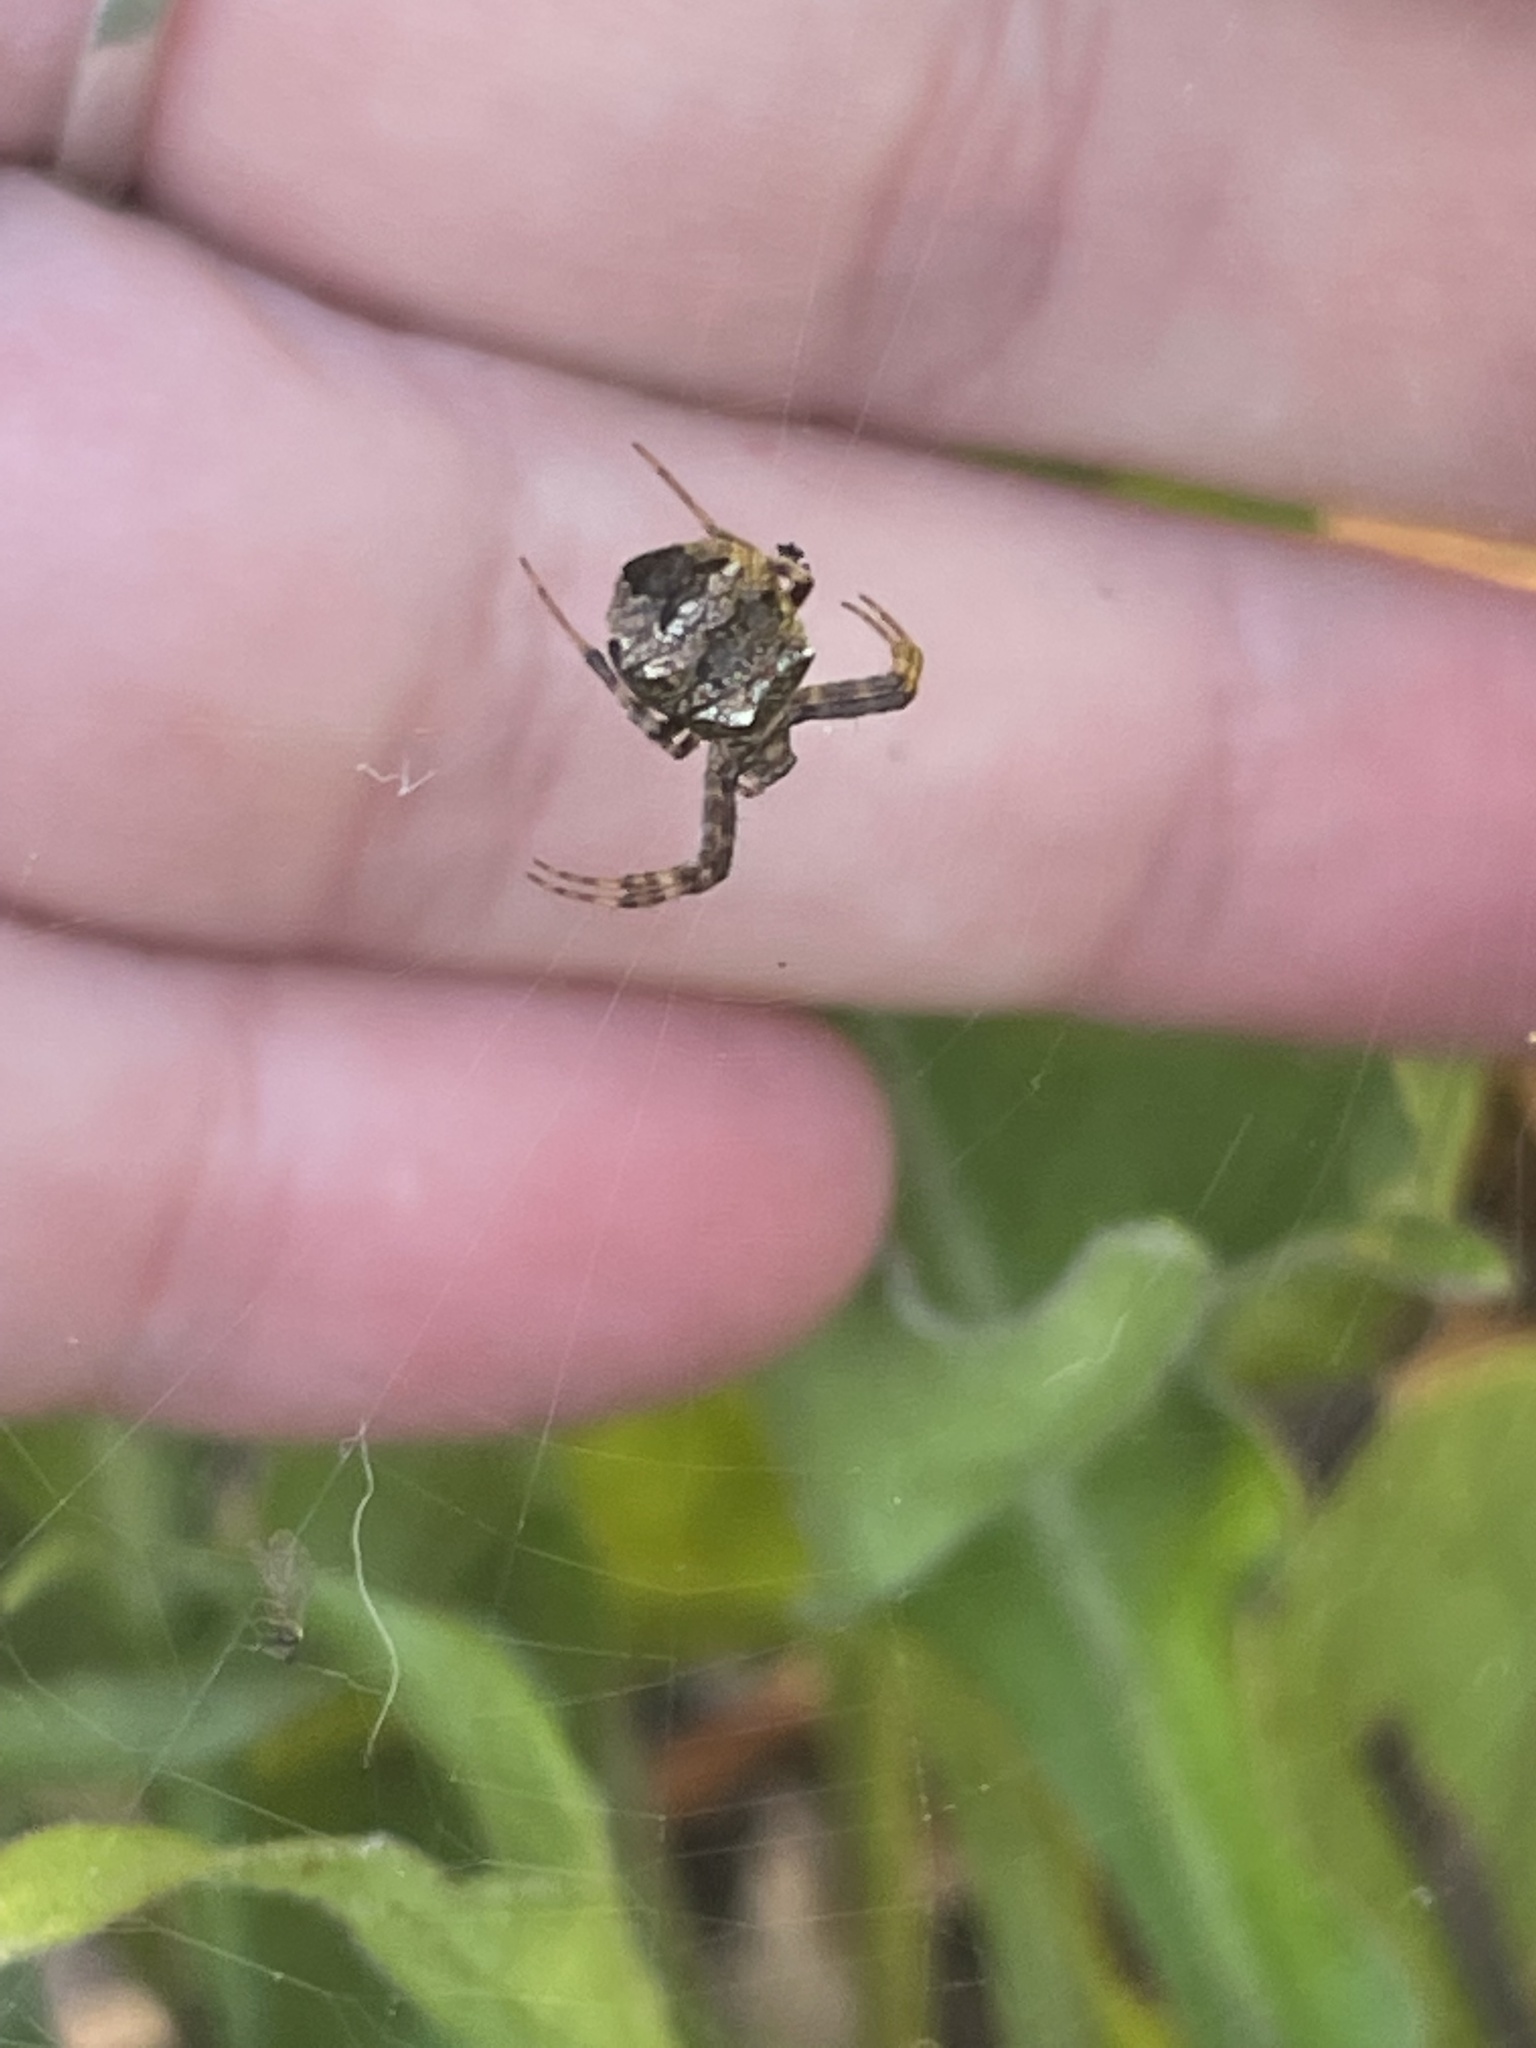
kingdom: Animalia
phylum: Arthropoda
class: Arachnida
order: Araneae
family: Araneidae
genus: Gea
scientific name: Gea heptagon
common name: Orb weavers
